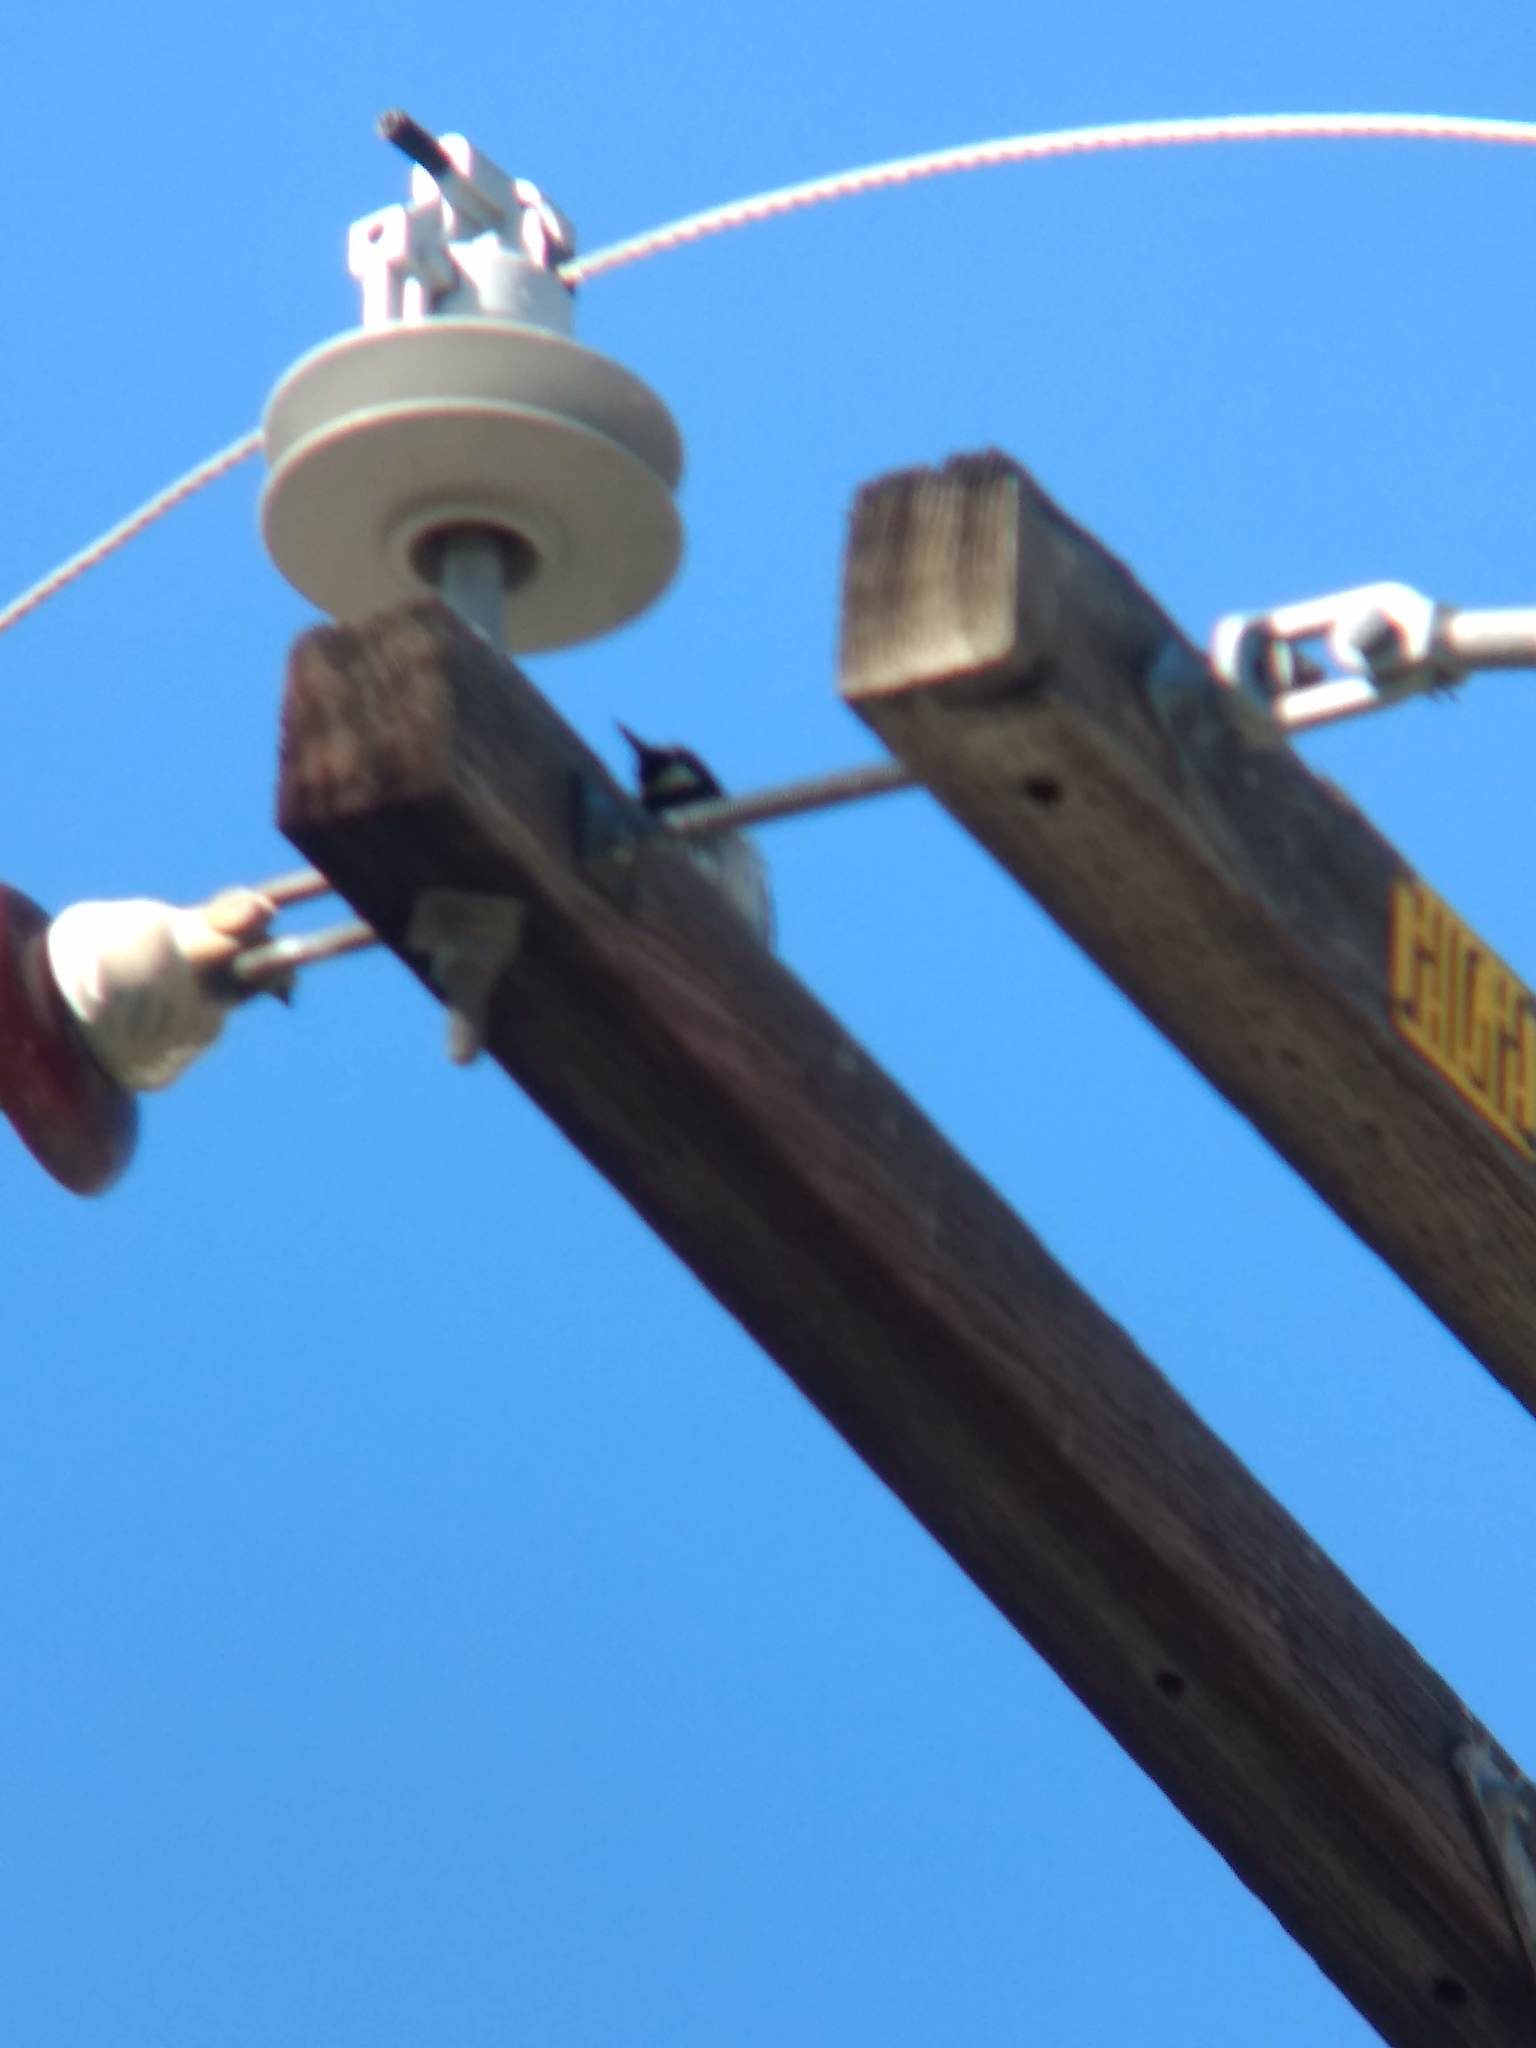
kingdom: Animalia
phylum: Chordata
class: Aves
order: Piciformes
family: Picidae
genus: Melanerpes
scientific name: Melanerpes formicivorus
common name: Acorn woodpecker
